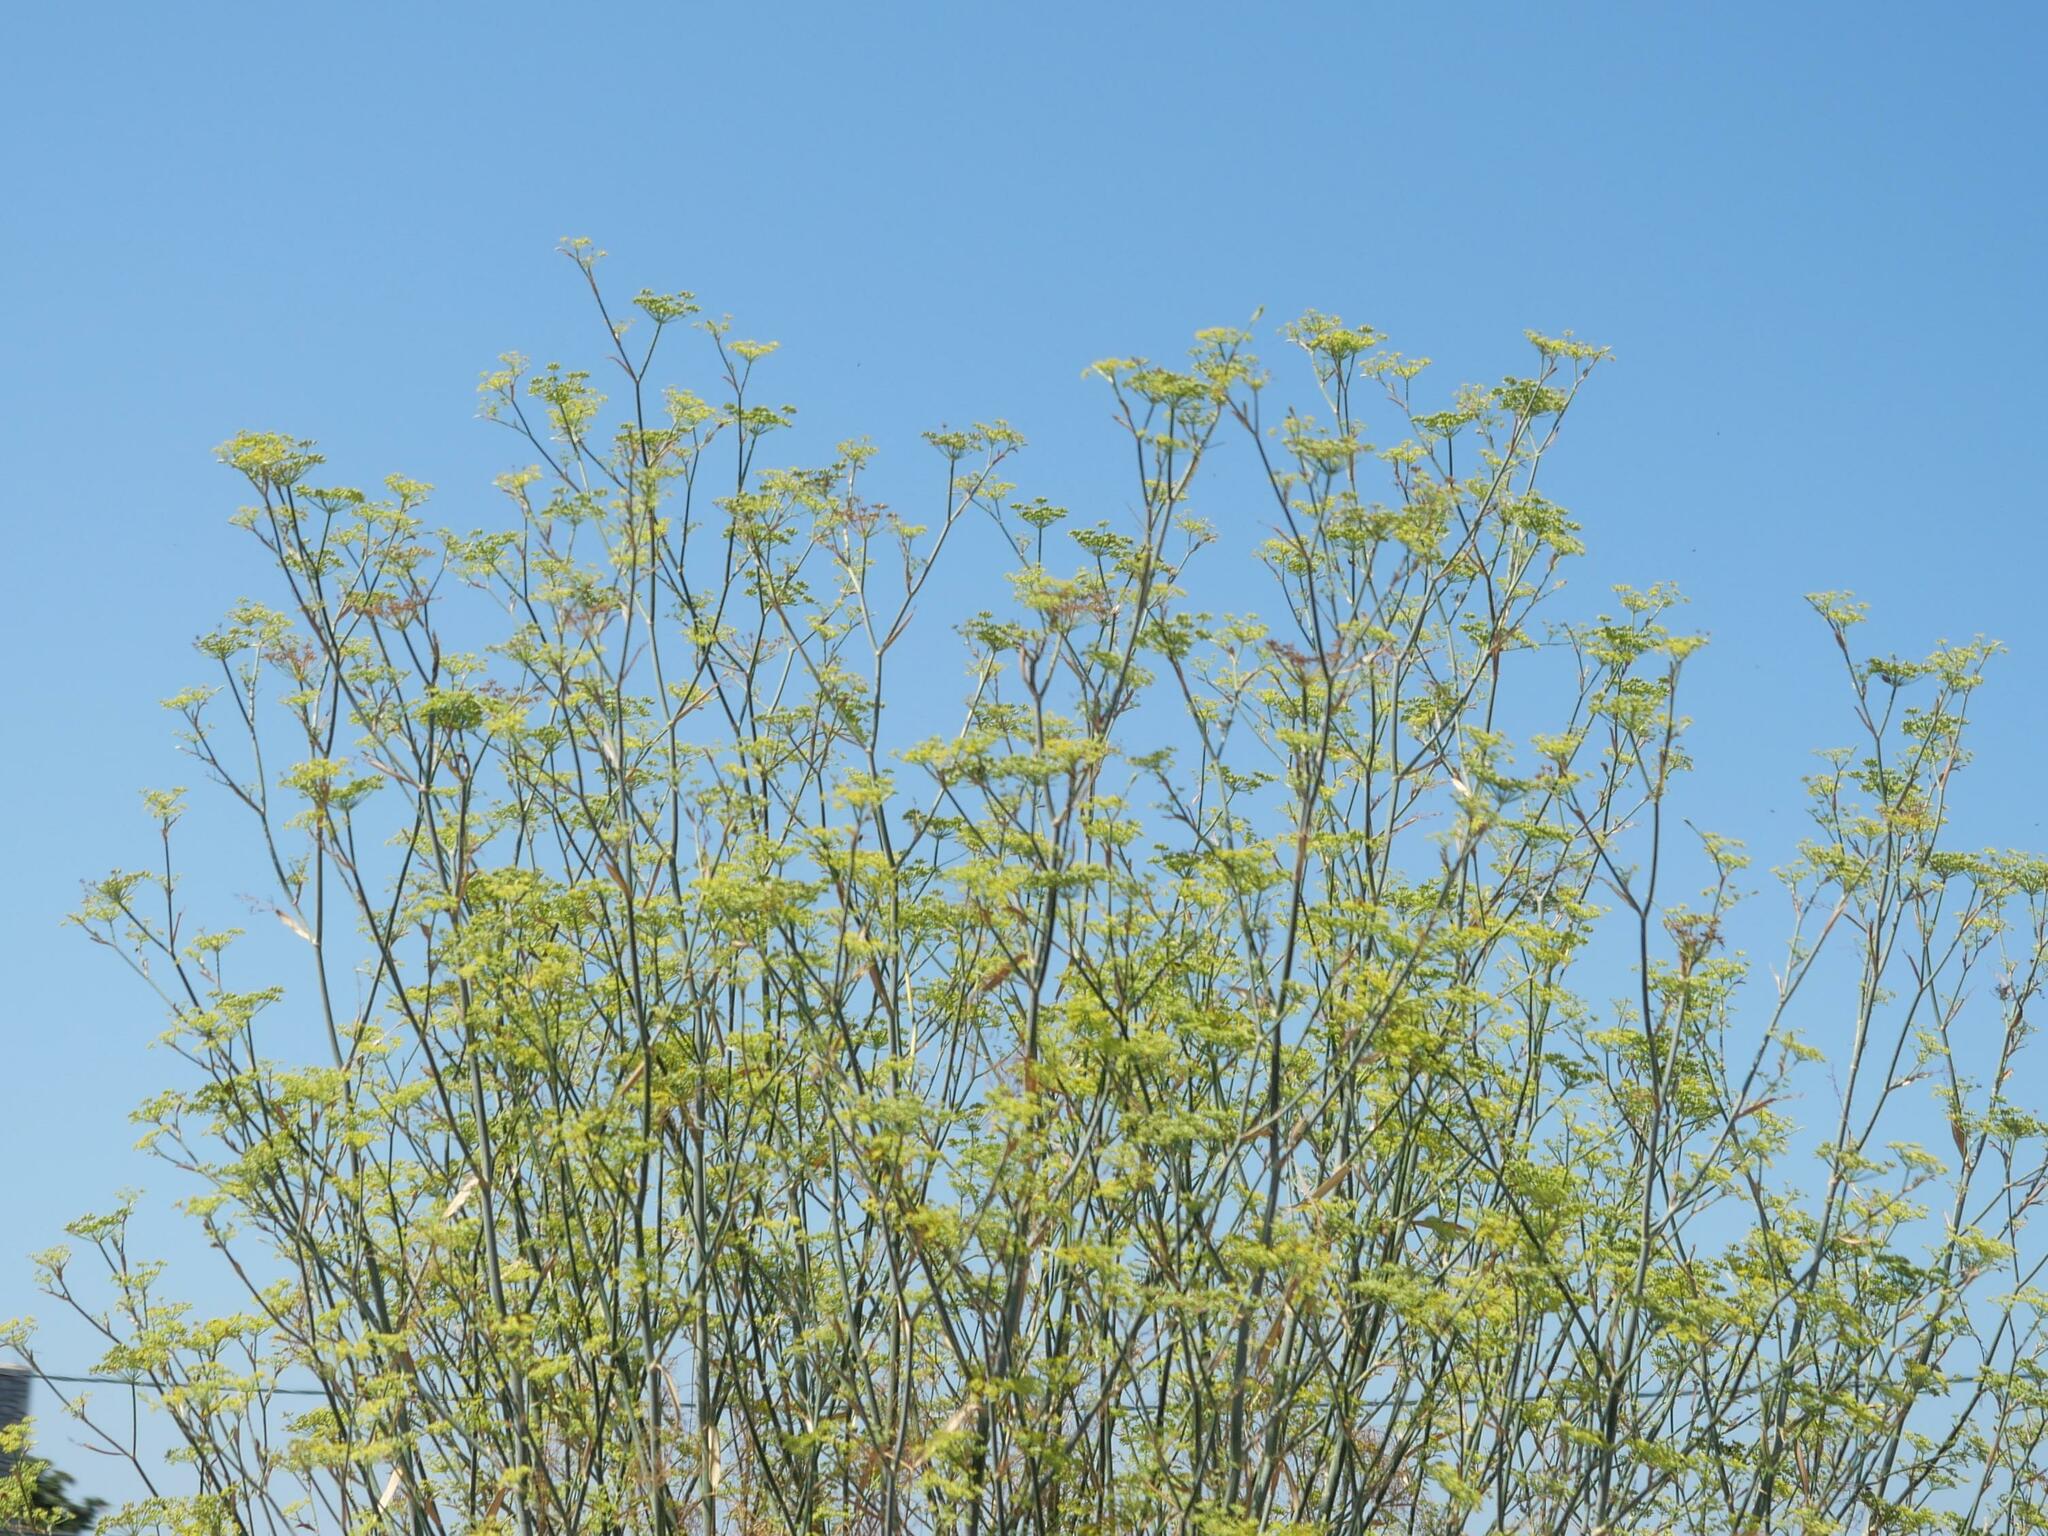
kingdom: Plantae
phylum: Tracheophyta
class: Magnoliopsida
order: Apiales
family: Apiaceae
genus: Foeniculum
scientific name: Foeniculum vulgare
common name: Fennel
